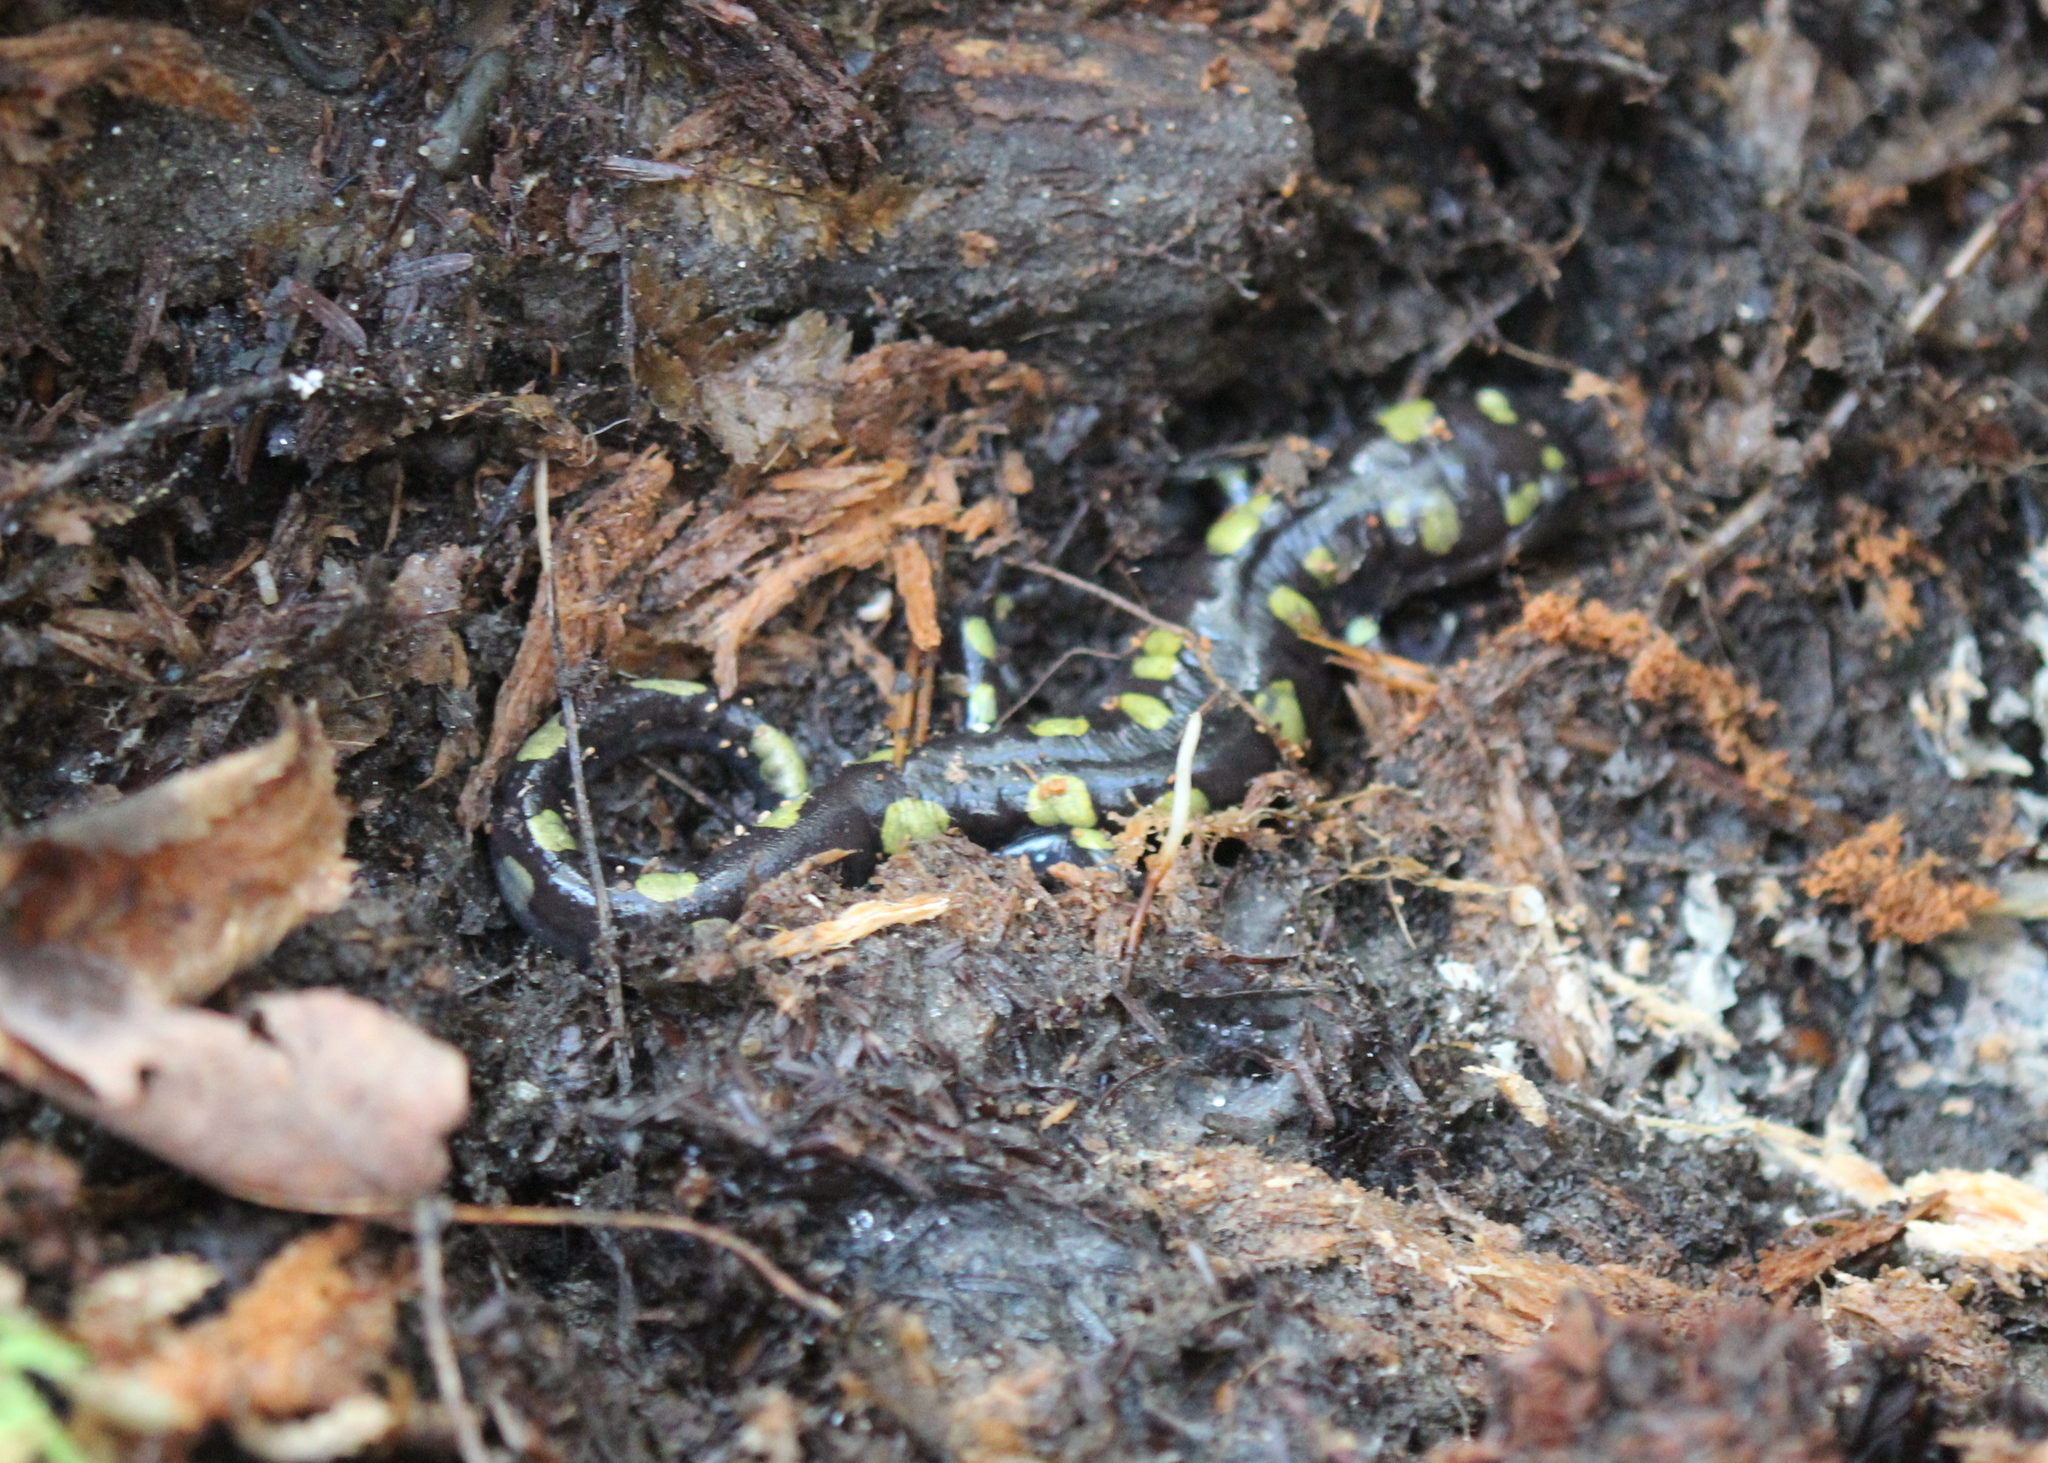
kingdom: Animalia
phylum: Chordata
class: Amphibia
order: Caudata
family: Ambystomatidae
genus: Ambystoma
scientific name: Ambystoma maculatum
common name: Spotted salamander
